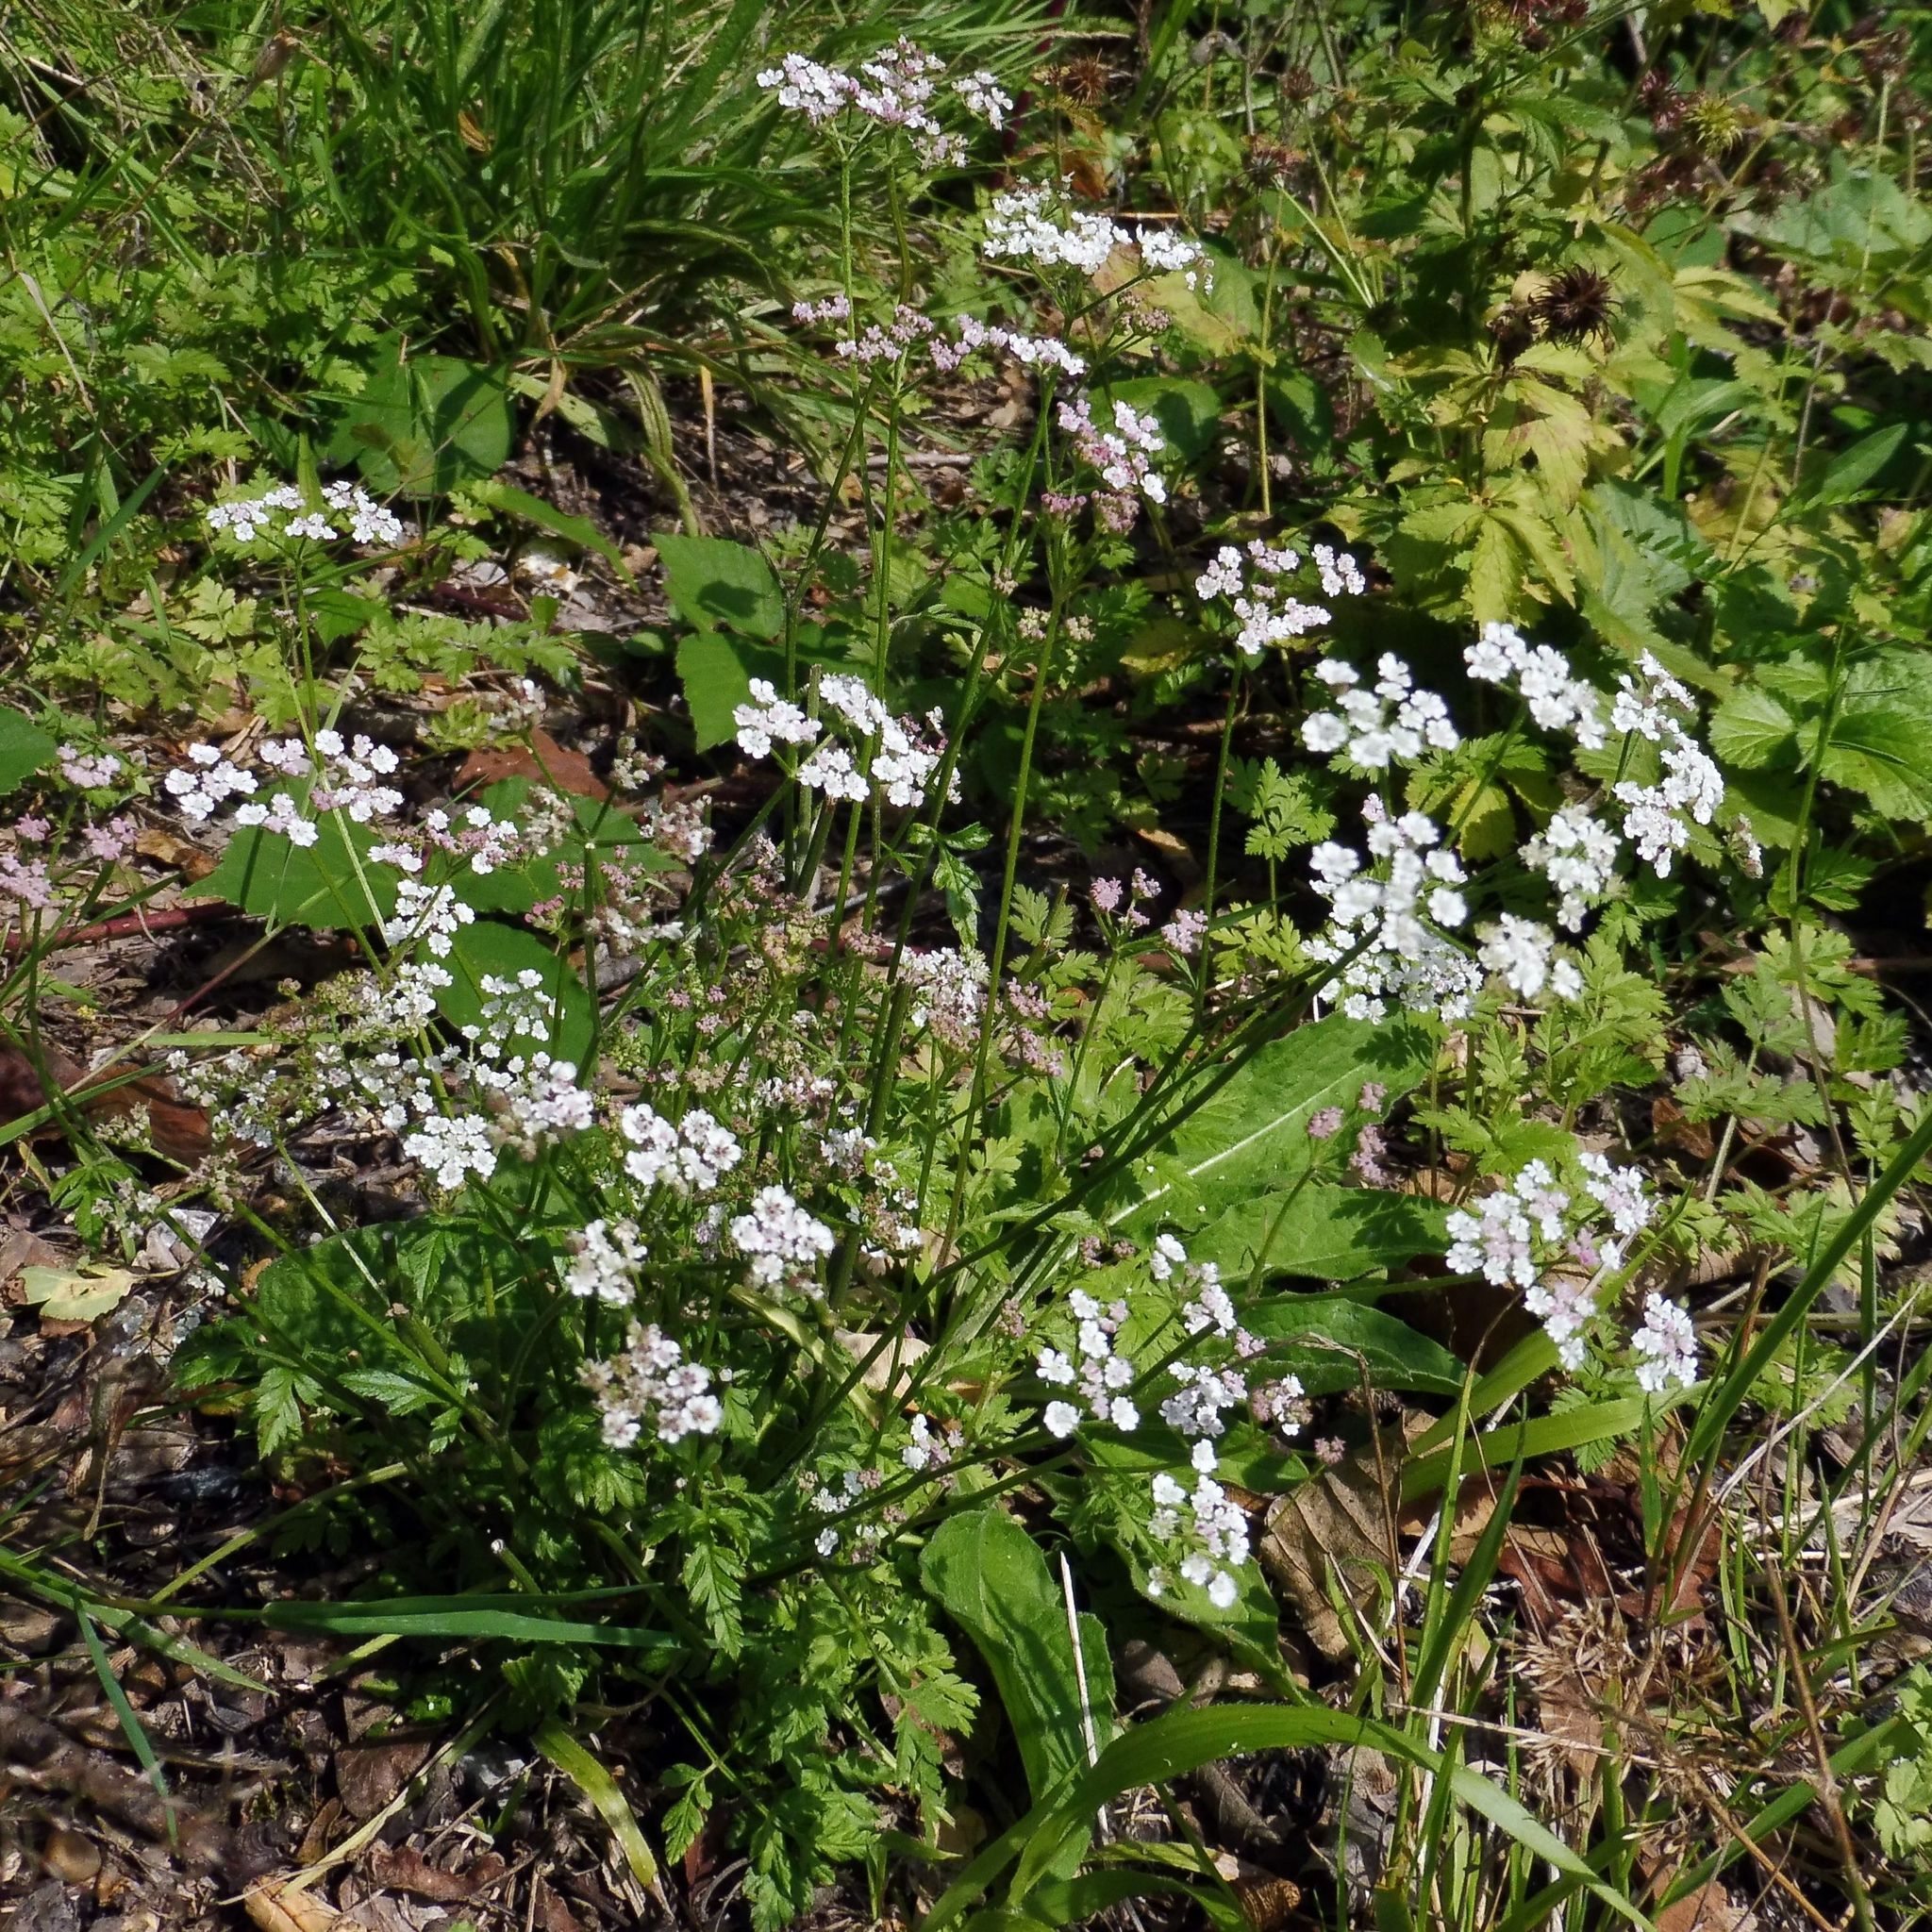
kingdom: Plantae
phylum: Tracheophyta
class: Magnoliopsida
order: Apiales
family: Apiaceae
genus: Torilis
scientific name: Torilis japonica
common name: Upright hedge-parsley
